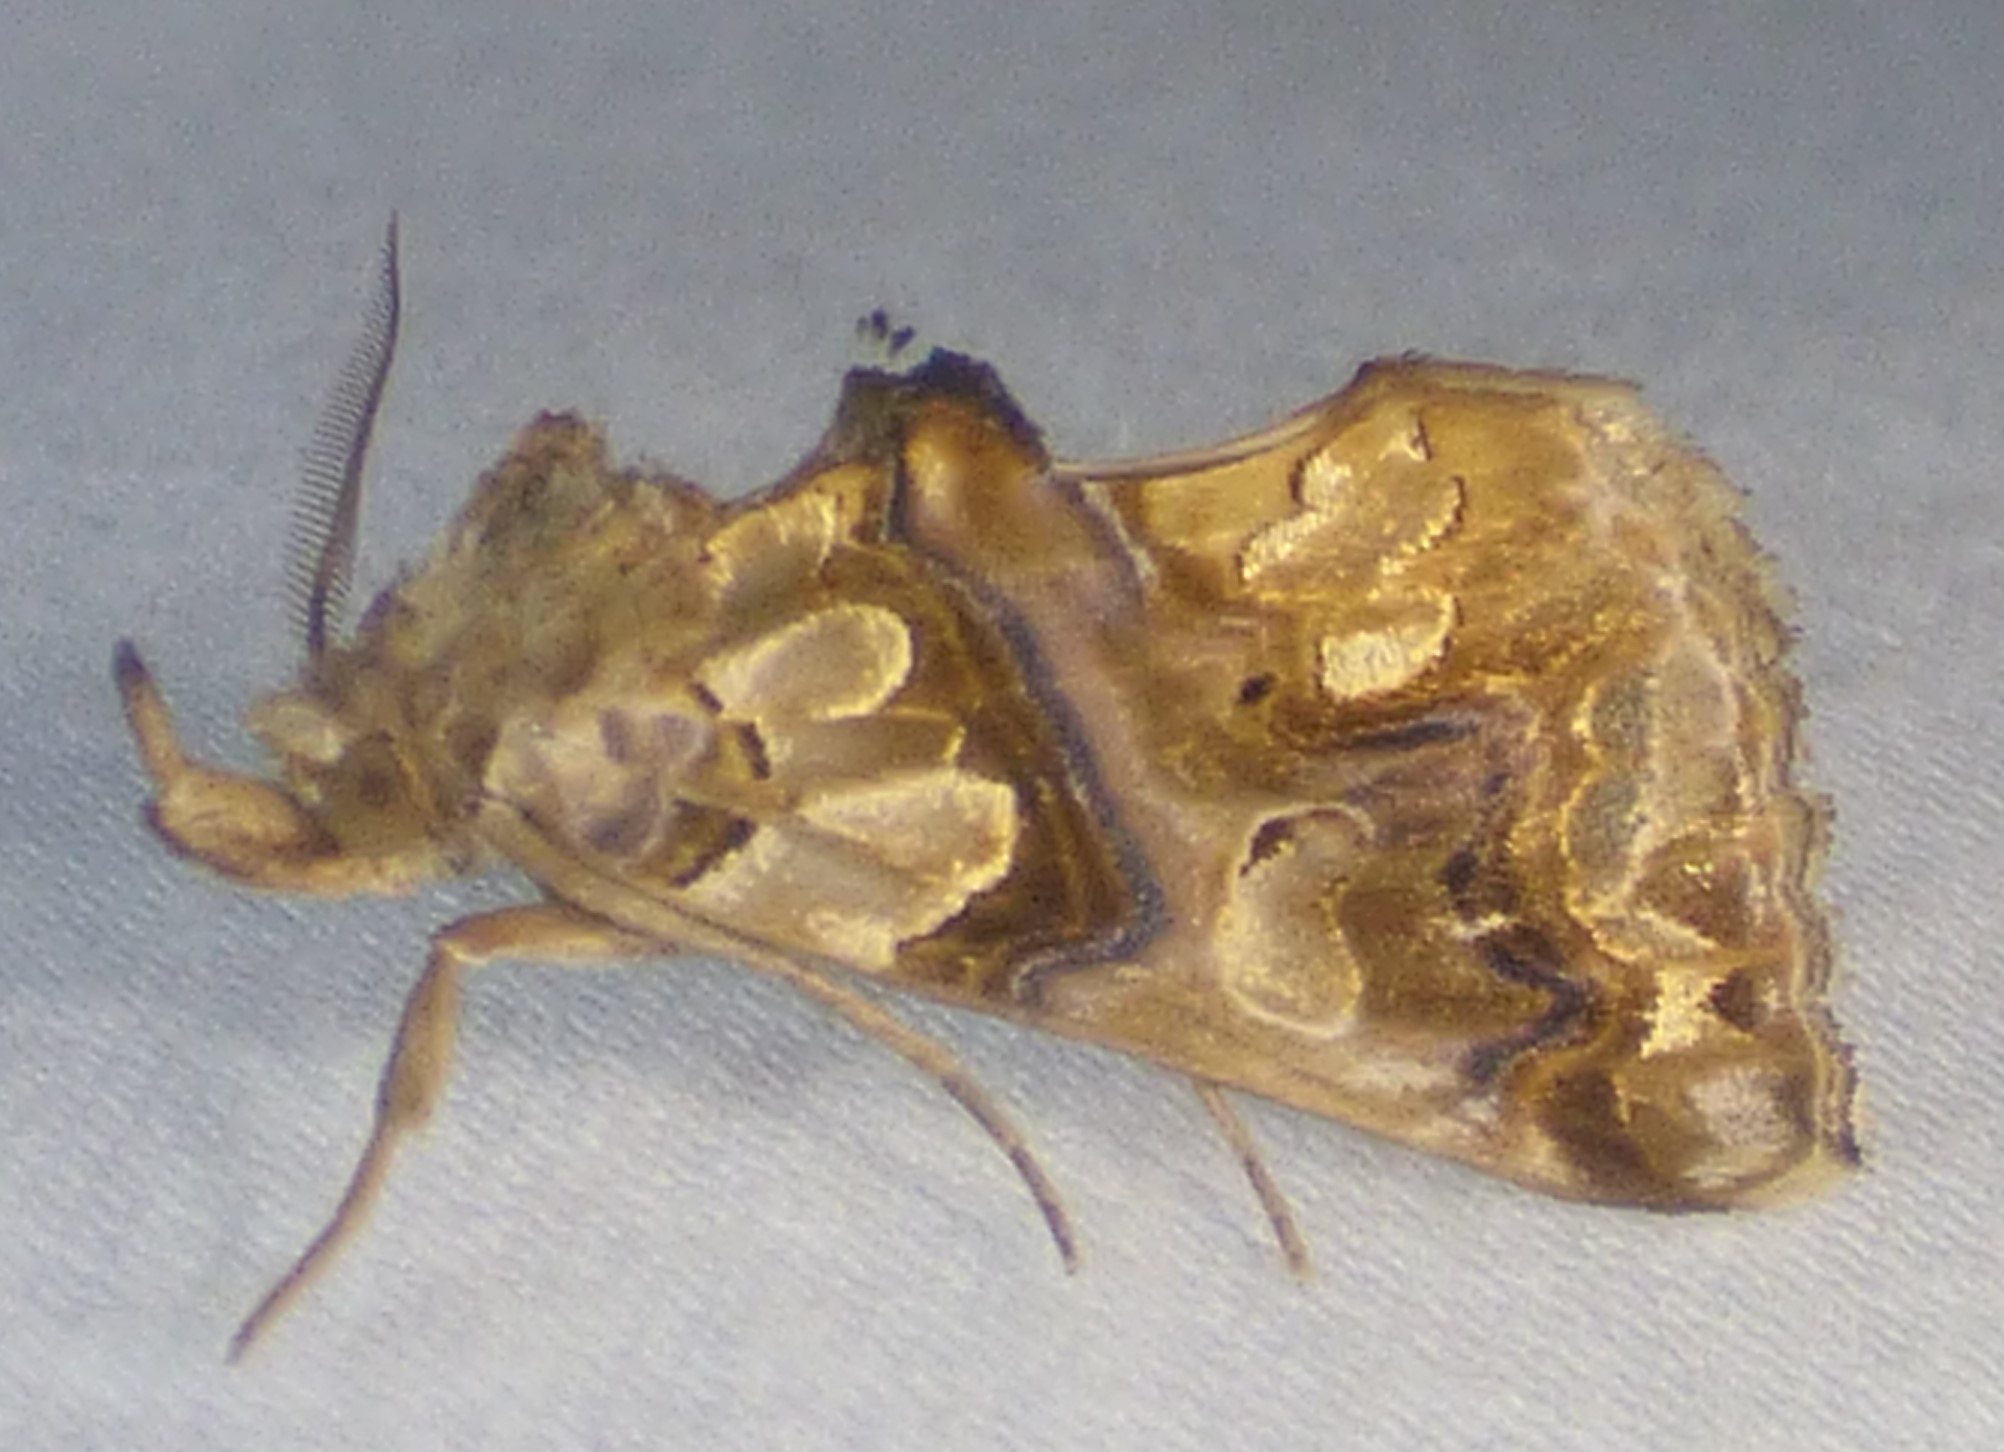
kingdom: Animalia
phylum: Arthropoda
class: Insecta
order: Lepidoptera
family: Erebidae
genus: Plusiodonta
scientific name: Plusiodonta compressipalpis
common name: Moonseed moth
